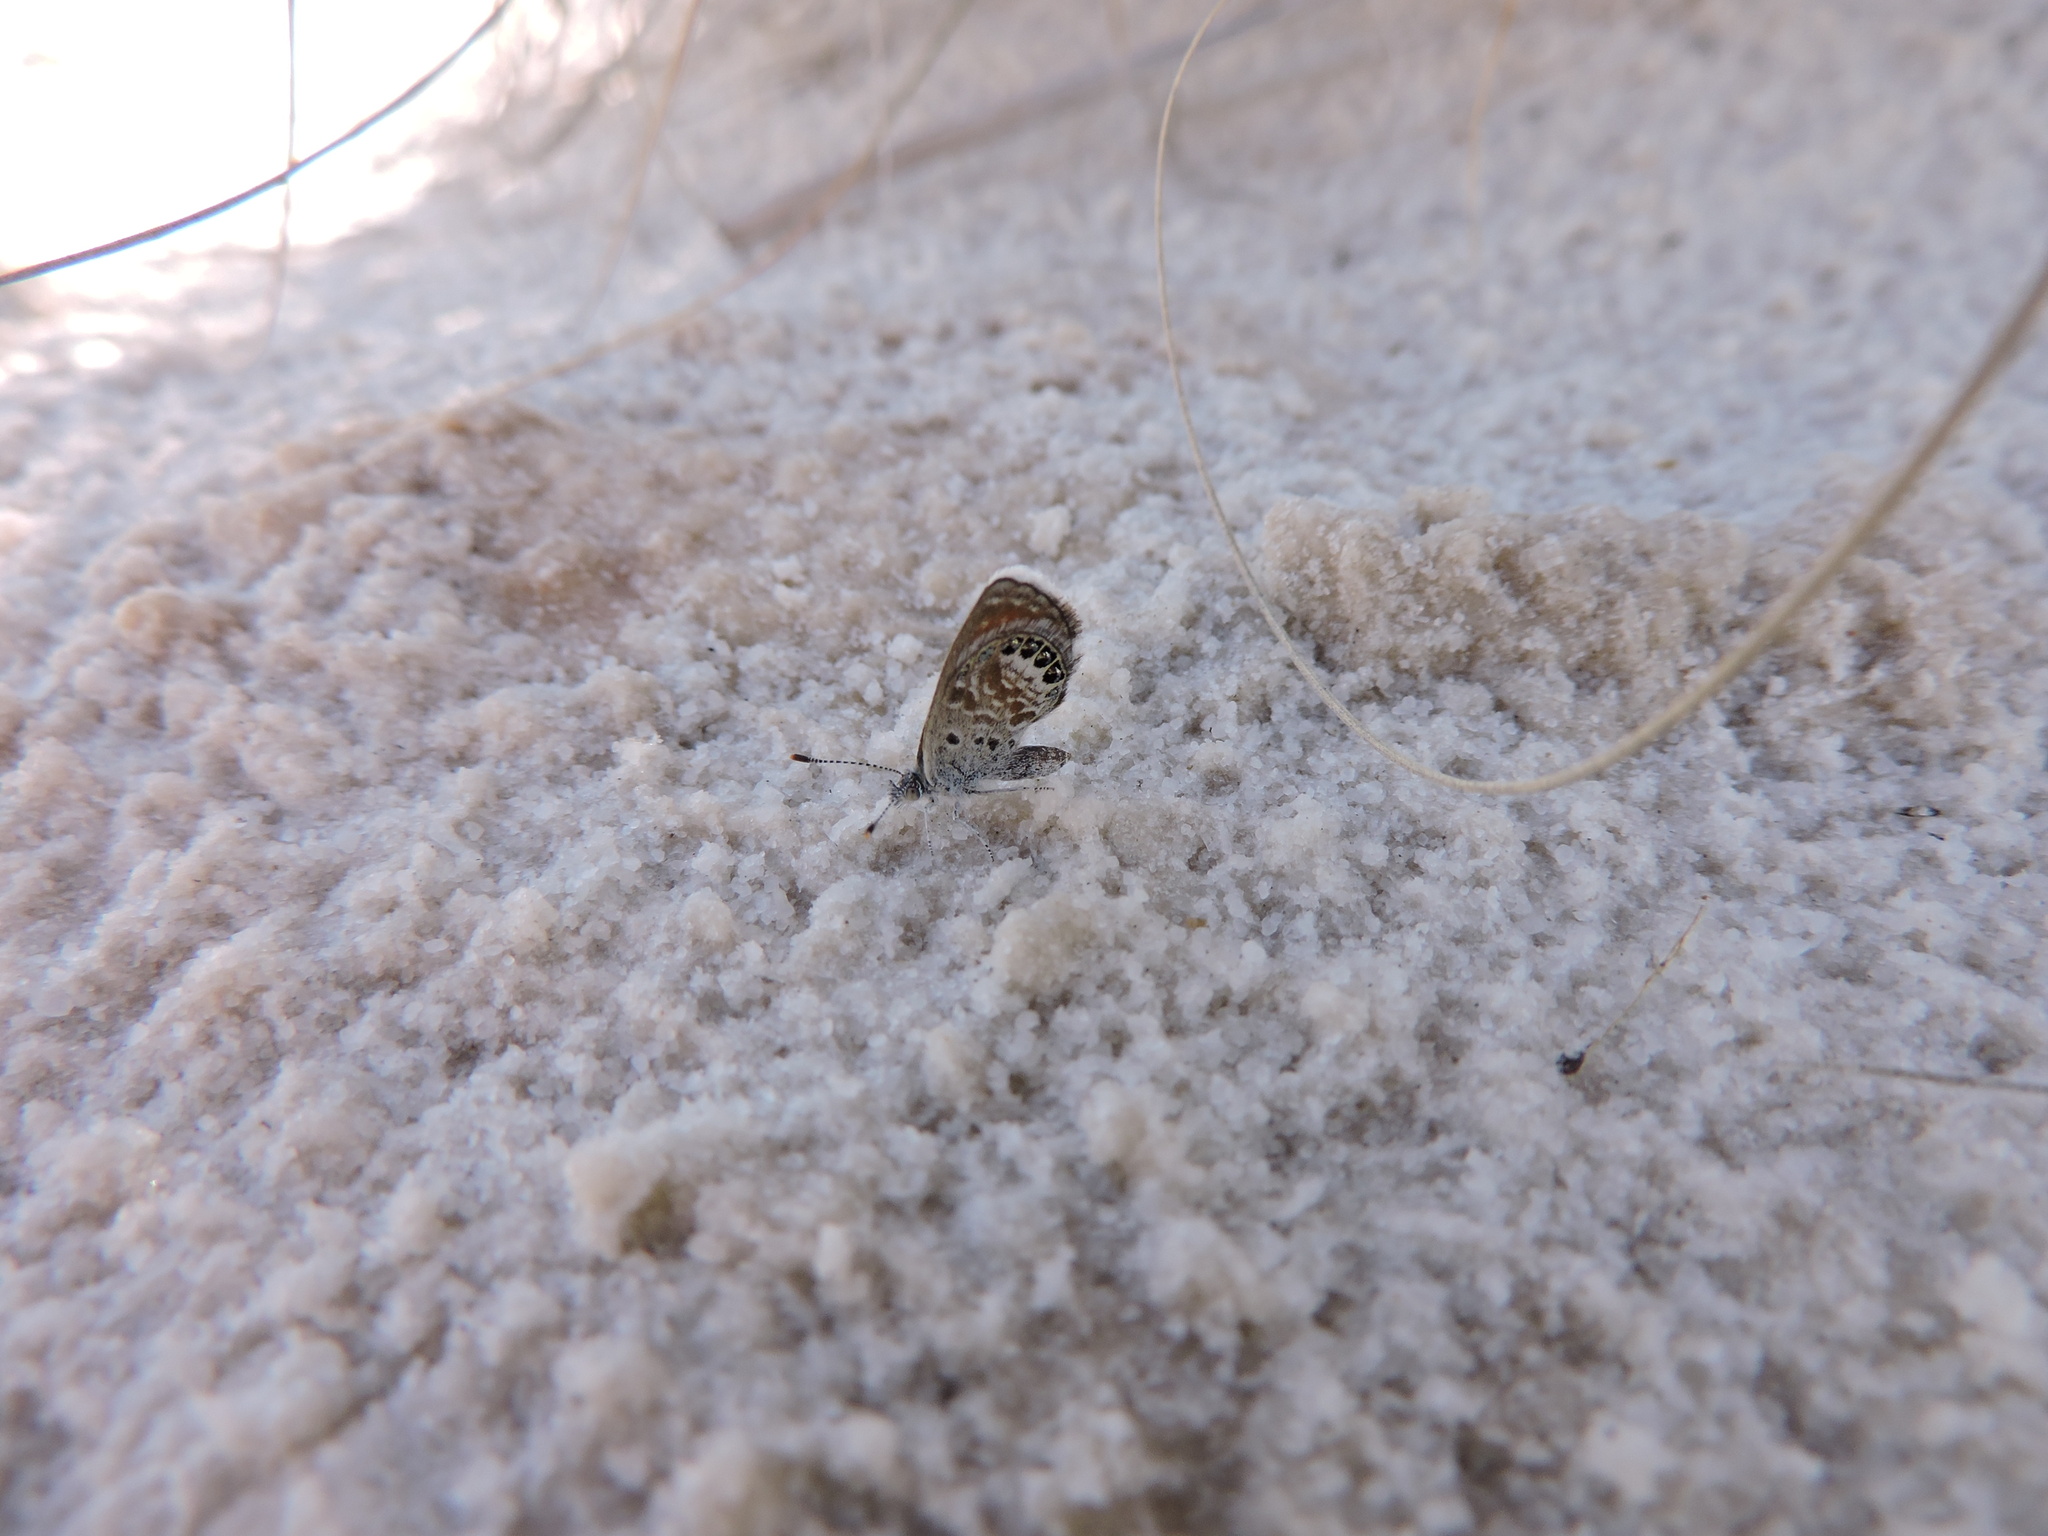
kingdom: Animalia
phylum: Arthropoda
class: Insecta
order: Lepidoptera
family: Lycaenidae
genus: Brephidium
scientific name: Brephidium exilis
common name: Pygmy blue
